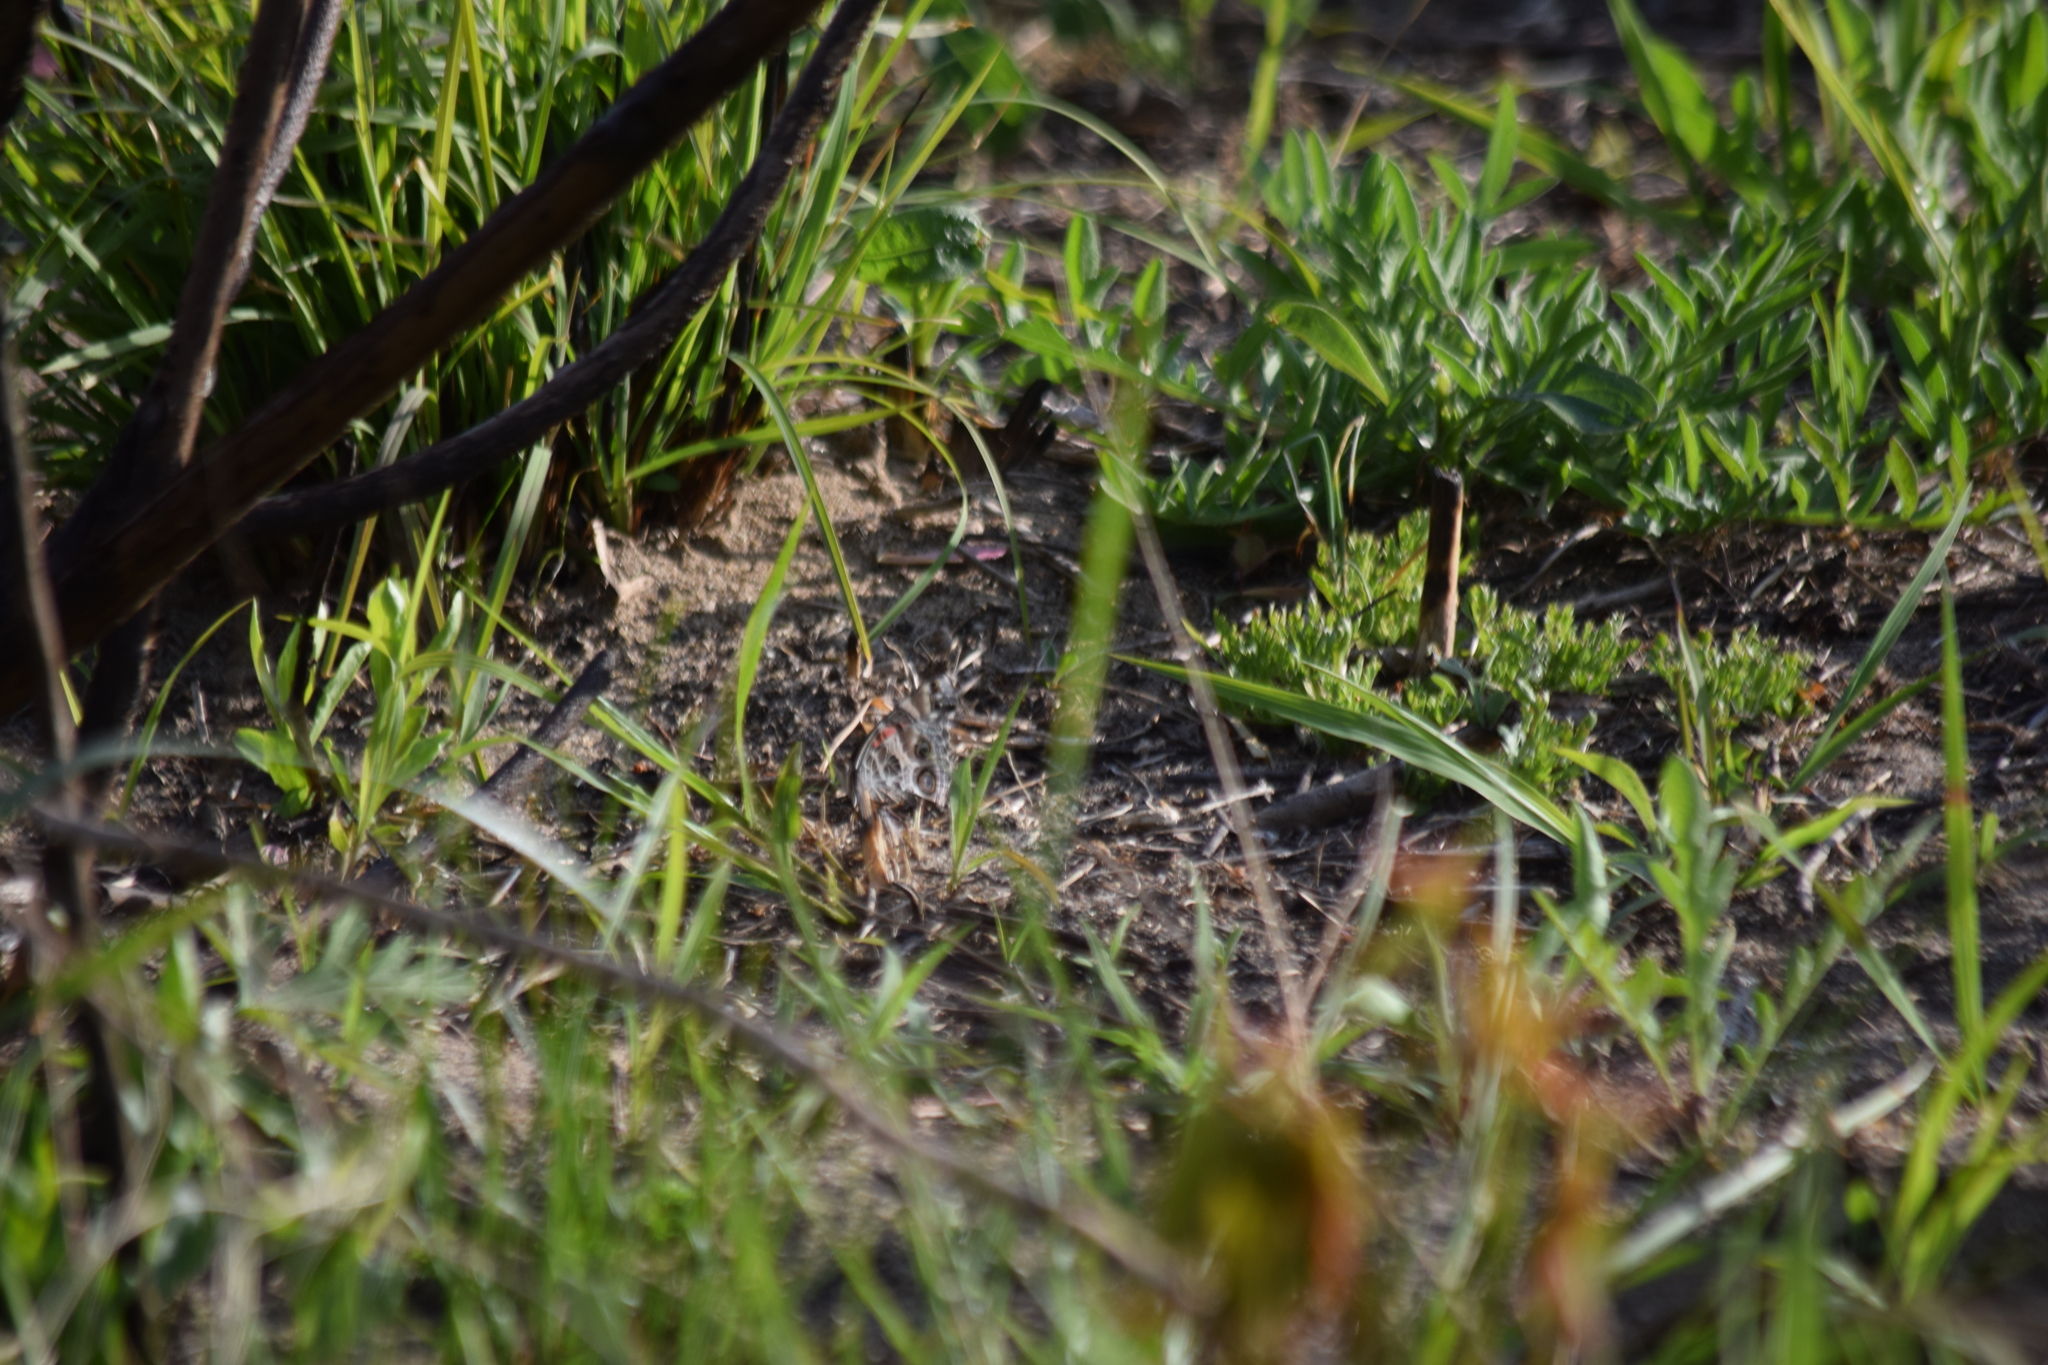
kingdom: Animalia
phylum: Arthropoda
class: Insecta
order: Lepidoptera
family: Nymphalidae
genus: Vanessa
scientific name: Vanessa virginiensis
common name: American lady
